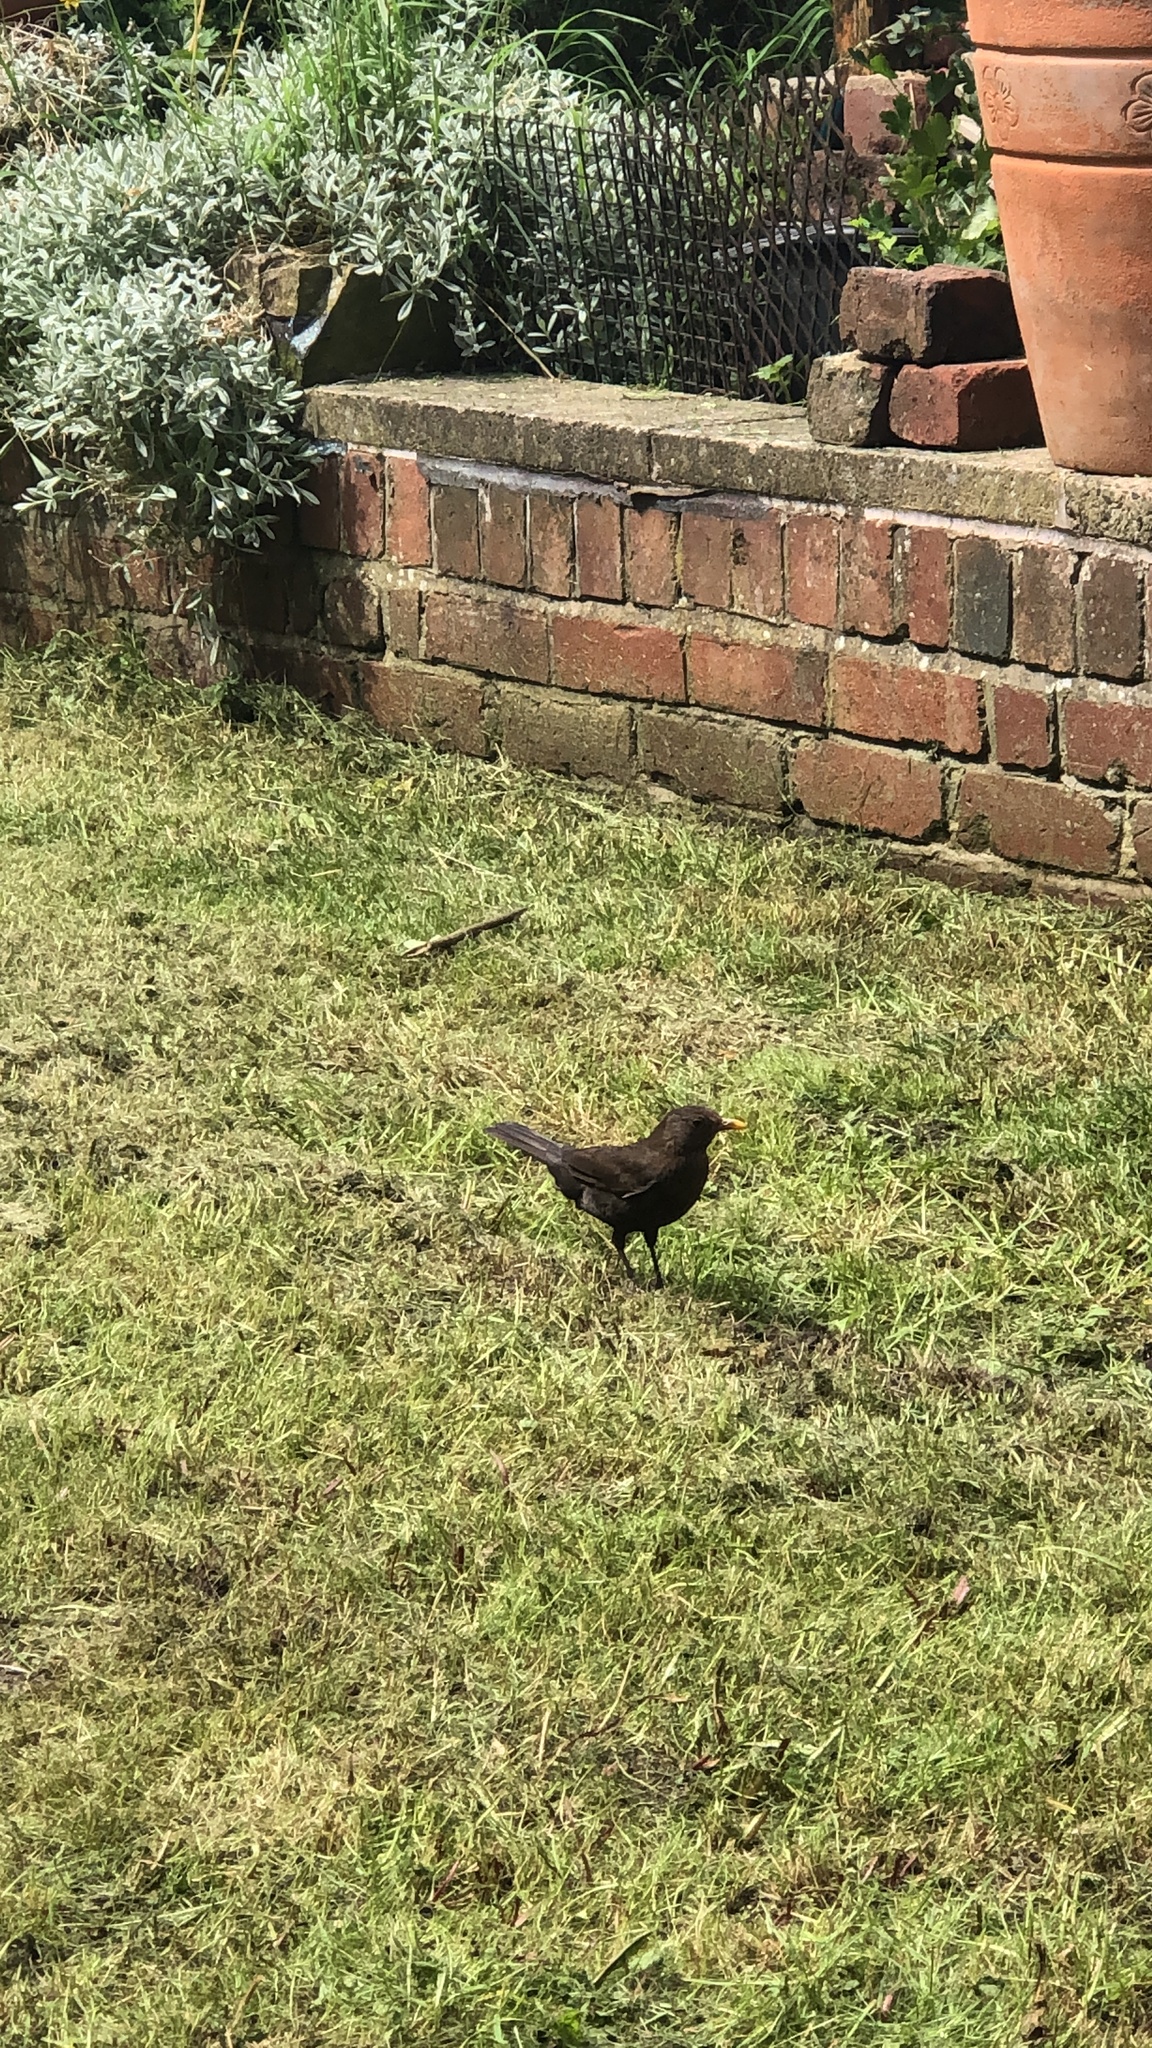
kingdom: Animalia
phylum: Chordata
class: Aves
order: Passeriformes
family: Turdidae
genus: Turdus
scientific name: Turdus merula
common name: Common blackbird
